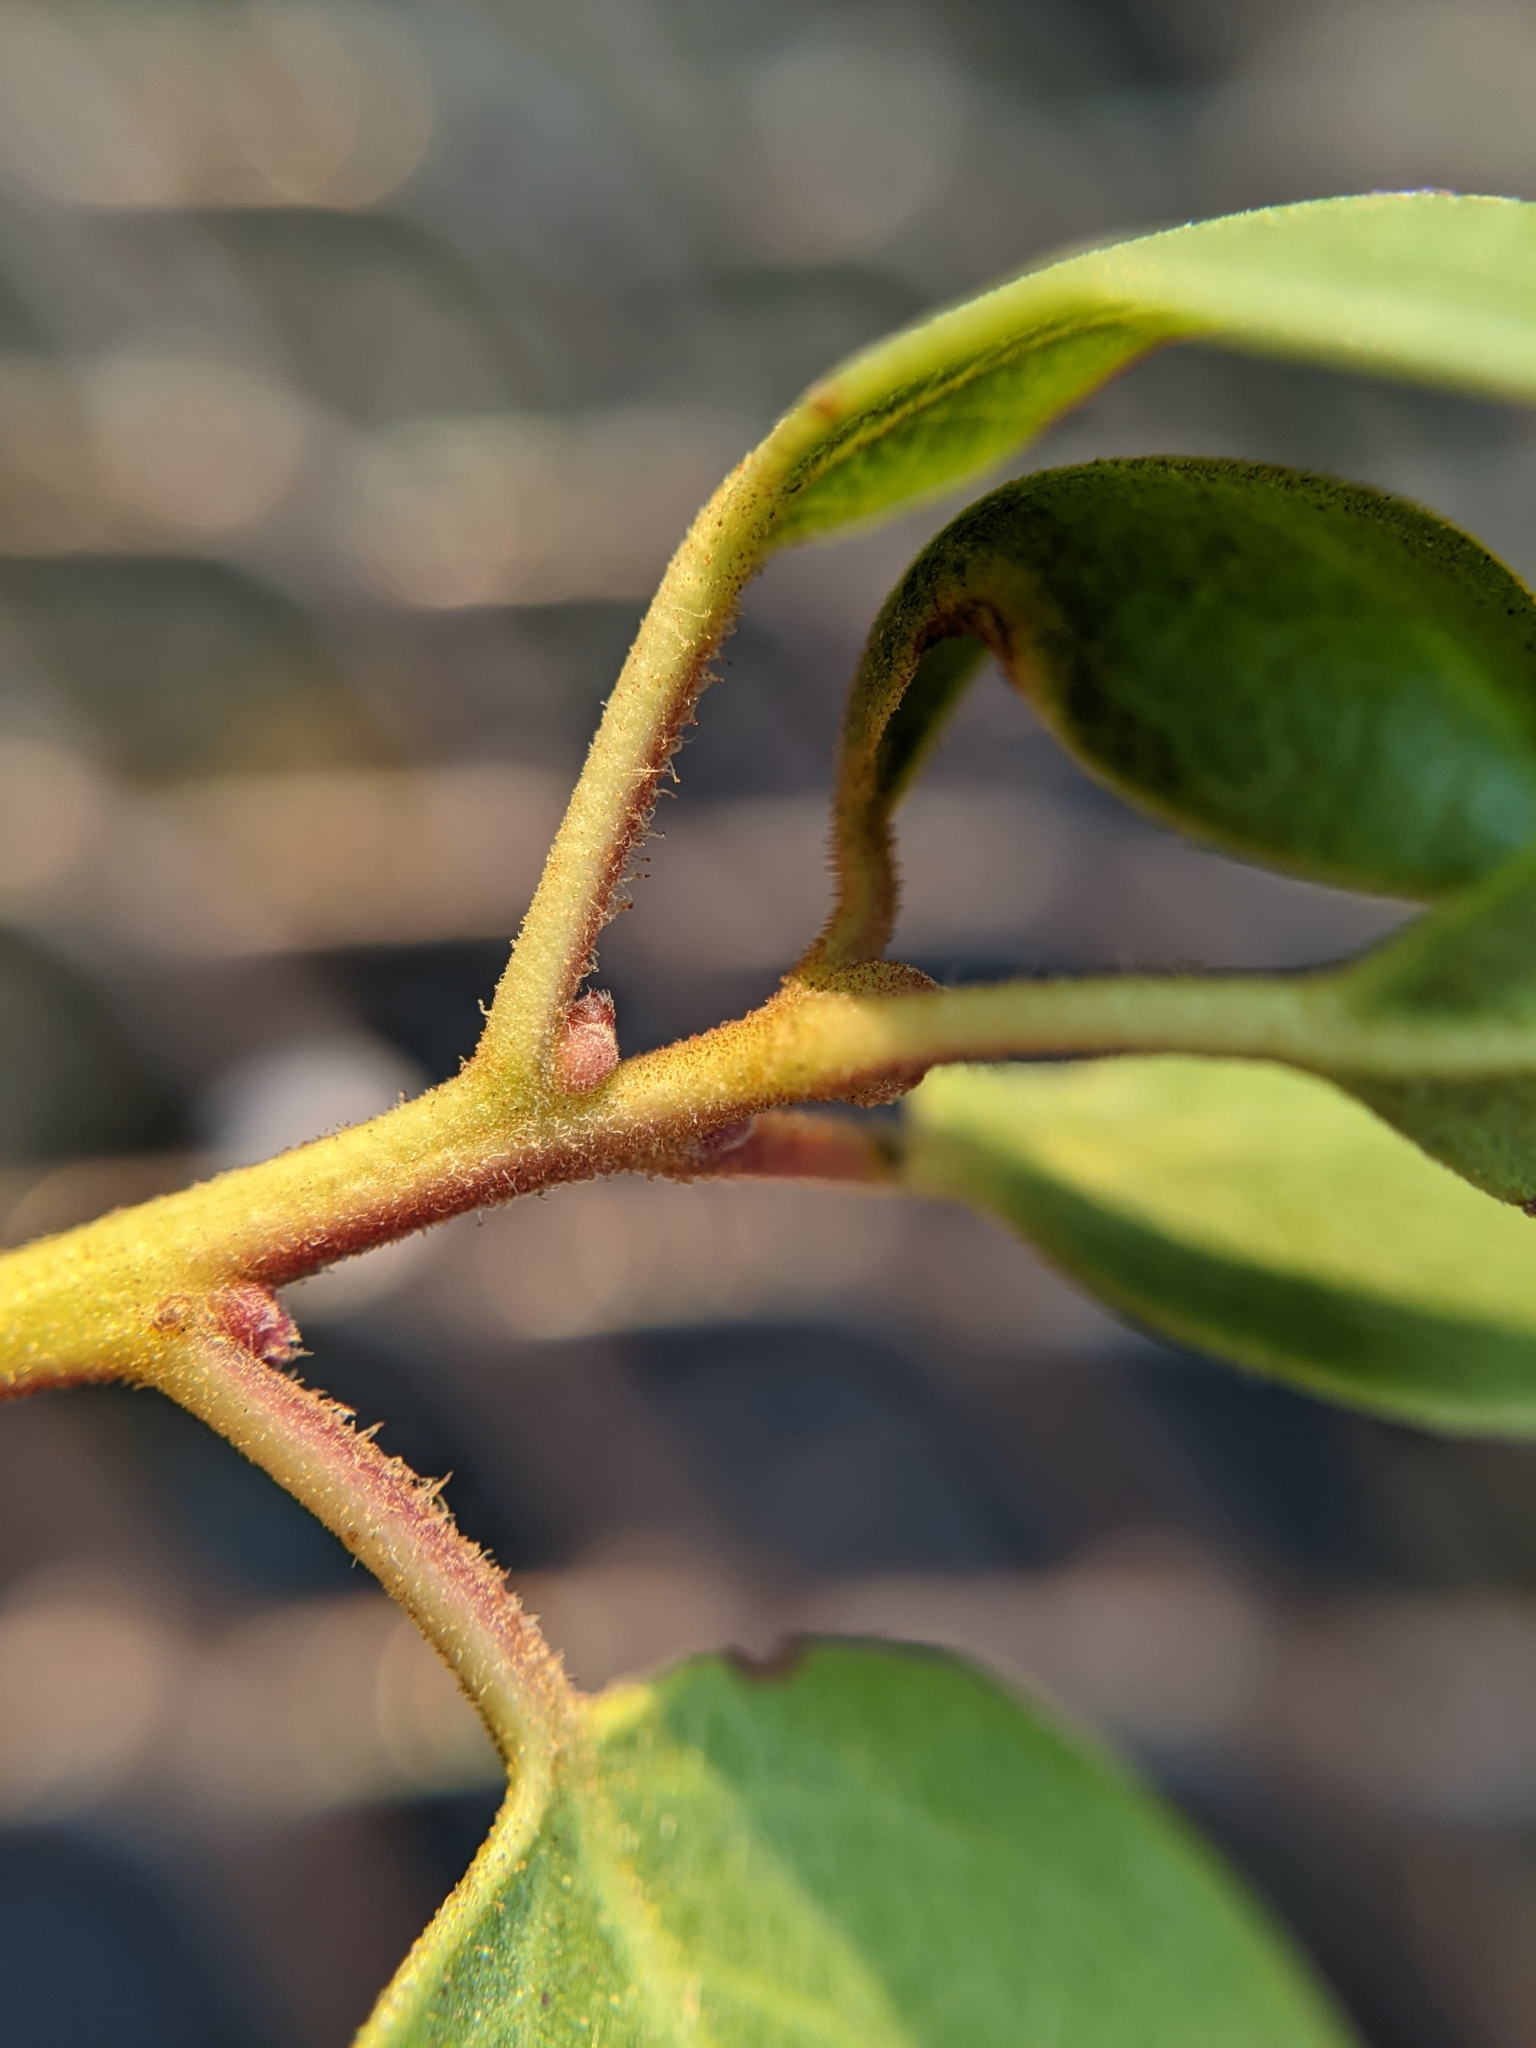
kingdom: Plantae
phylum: Tracheophyta
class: Magnoliopsida
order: Ericales
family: Ericaceae
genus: Arctostaphylos
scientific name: Arctostaphylos patula
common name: Green-leaf manzanita
